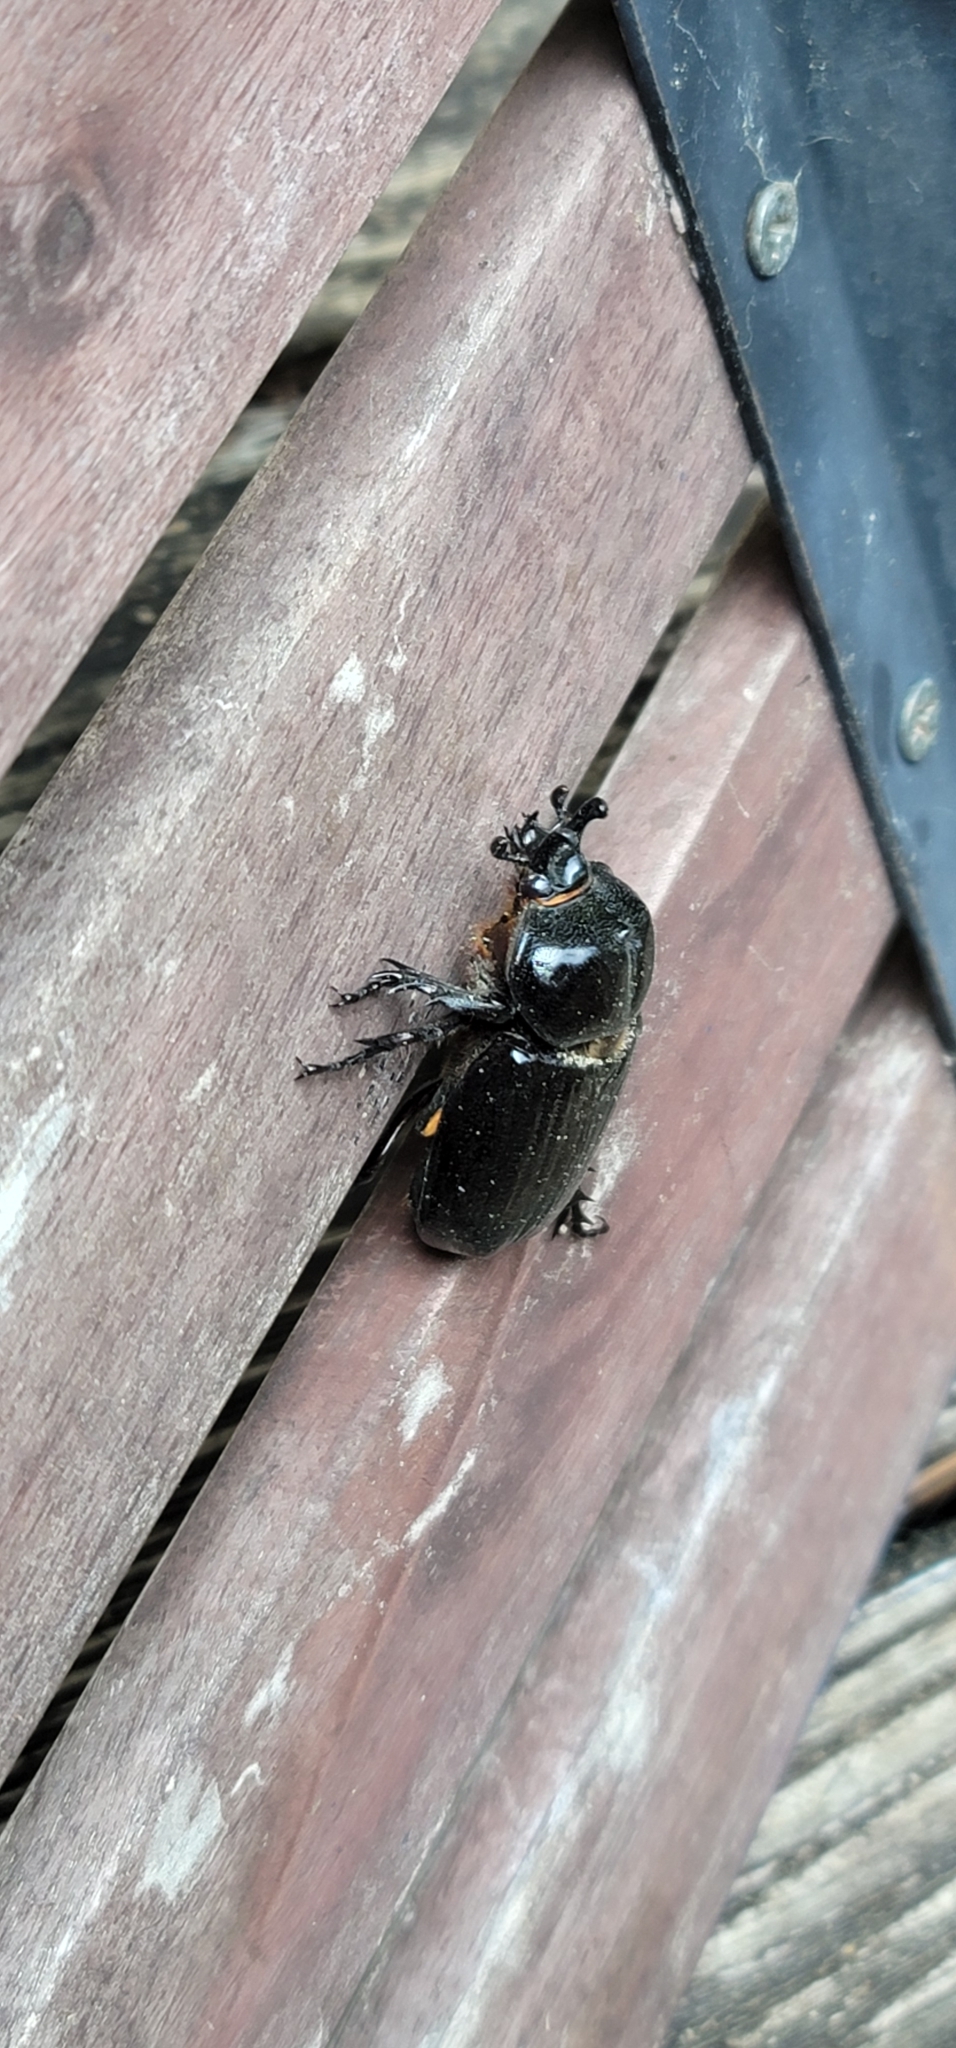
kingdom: Animalia
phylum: Arthropoda
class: Insecta
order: Coleoptera
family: Scarabaeidae
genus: Phileurus
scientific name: Phileurus truncatus
